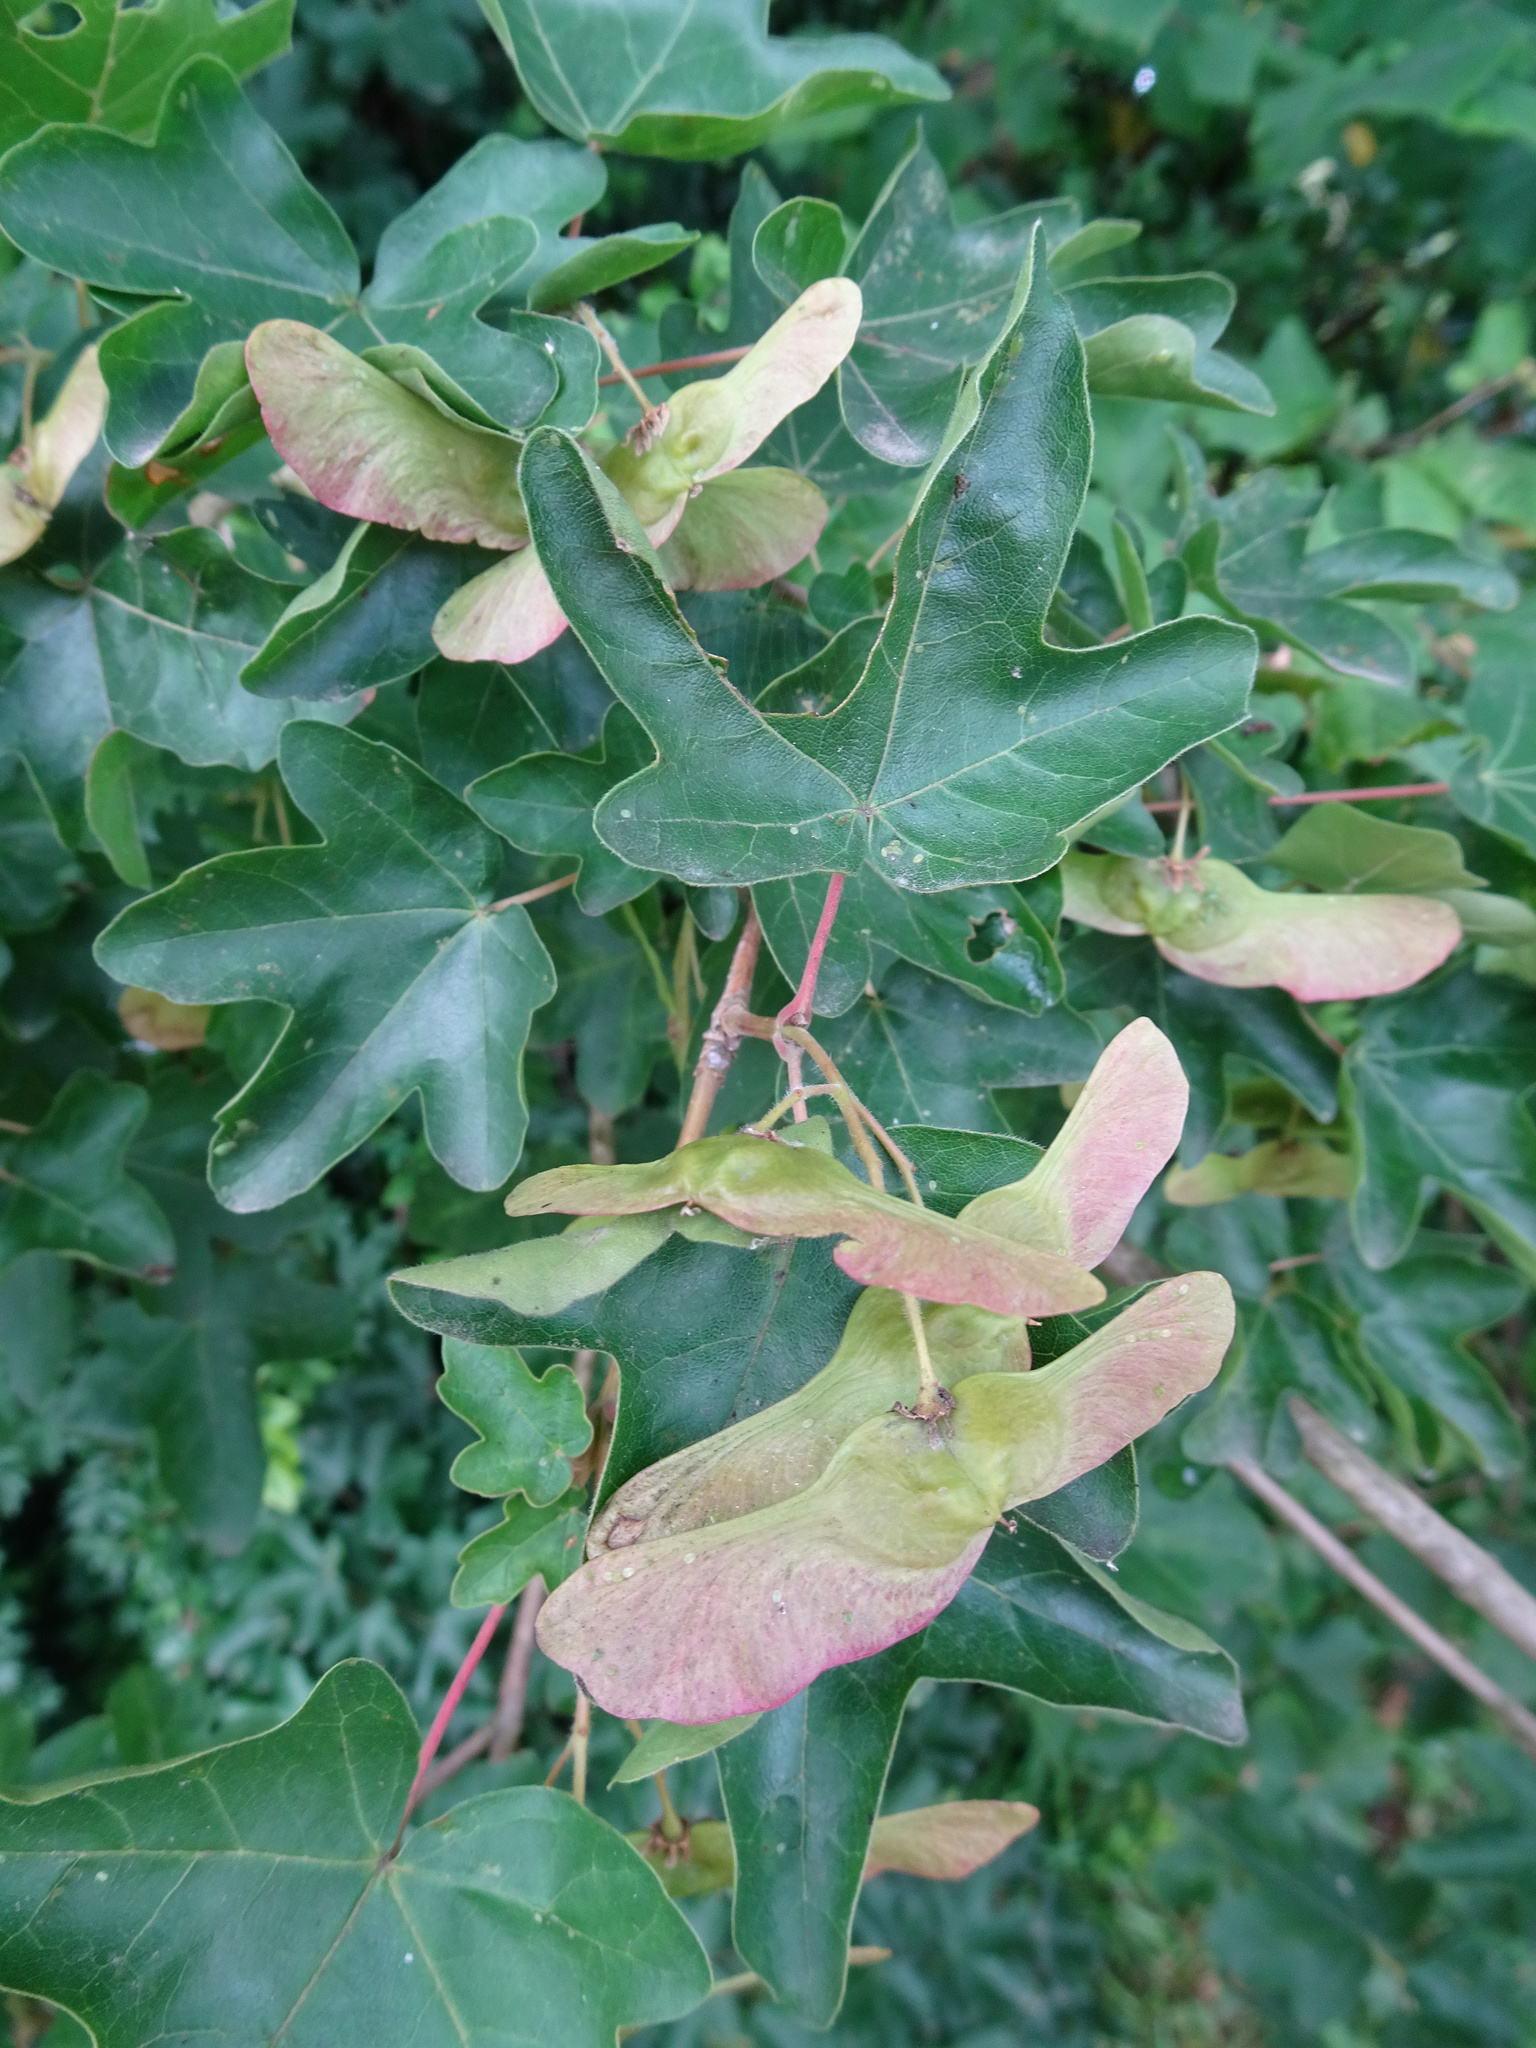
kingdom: Plantae
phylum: Tracheophyta
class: Magnoliopsida
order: Sapindales
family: Sapindaceae
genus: Acer
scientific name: Acer campestre
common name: Field maple
